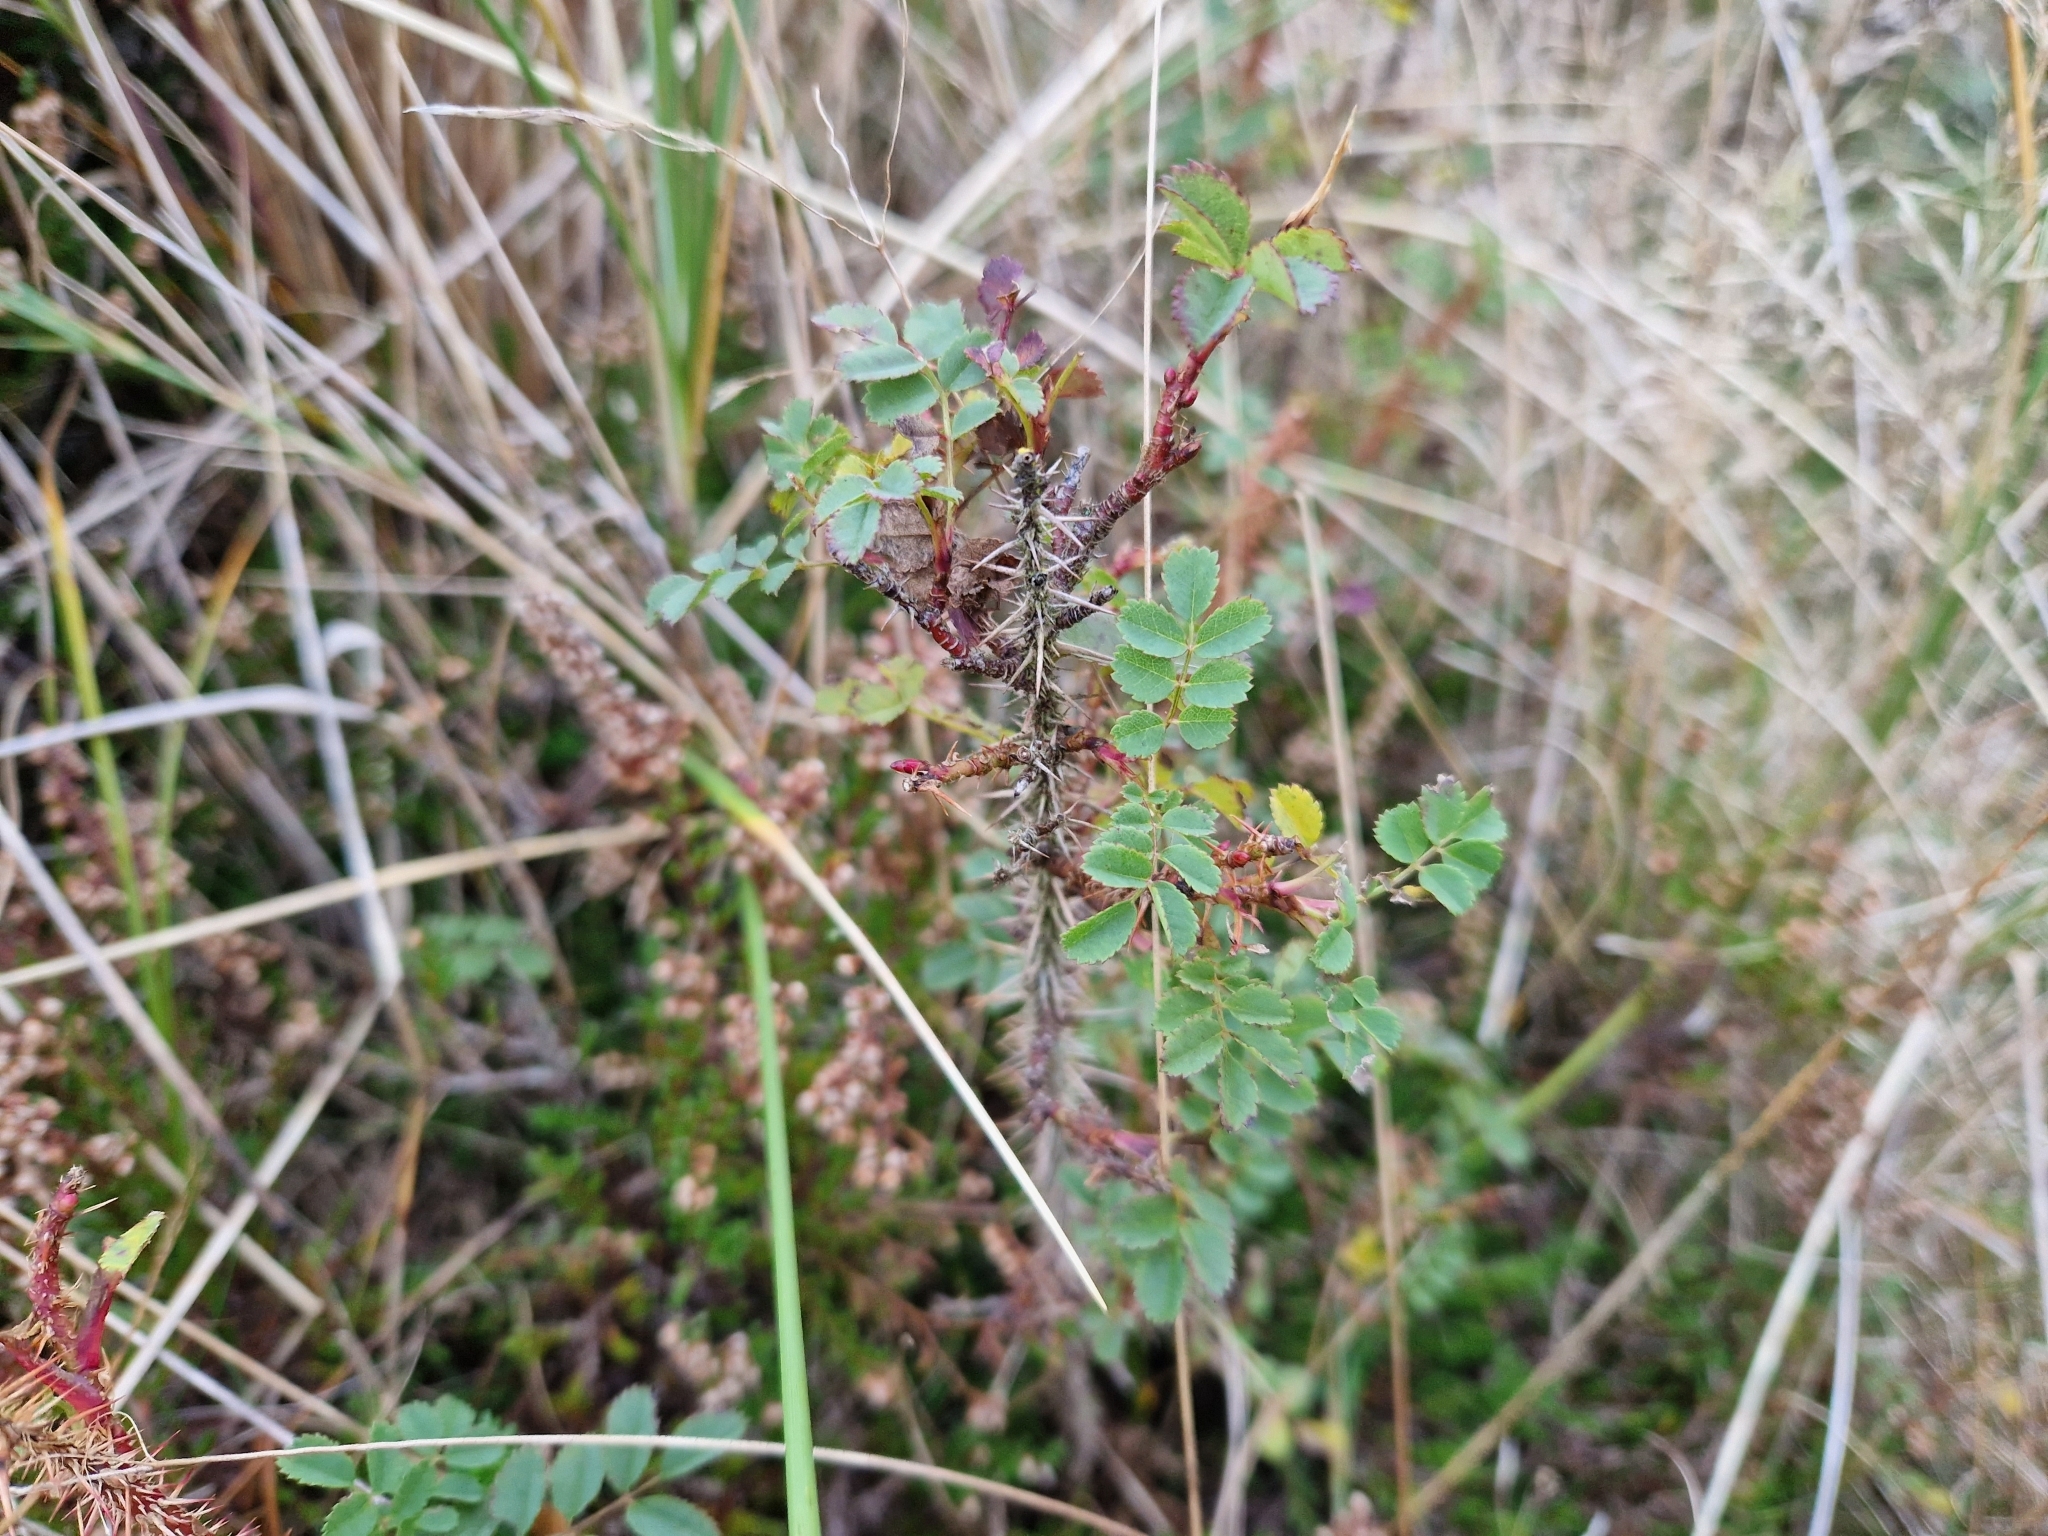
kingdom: Plantae
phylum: Tracheophyta
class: Magnoliopsida
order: Rosales
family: Rosaceae
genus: Rosa
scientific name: Rosa spinosissima
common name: Burnet rose
